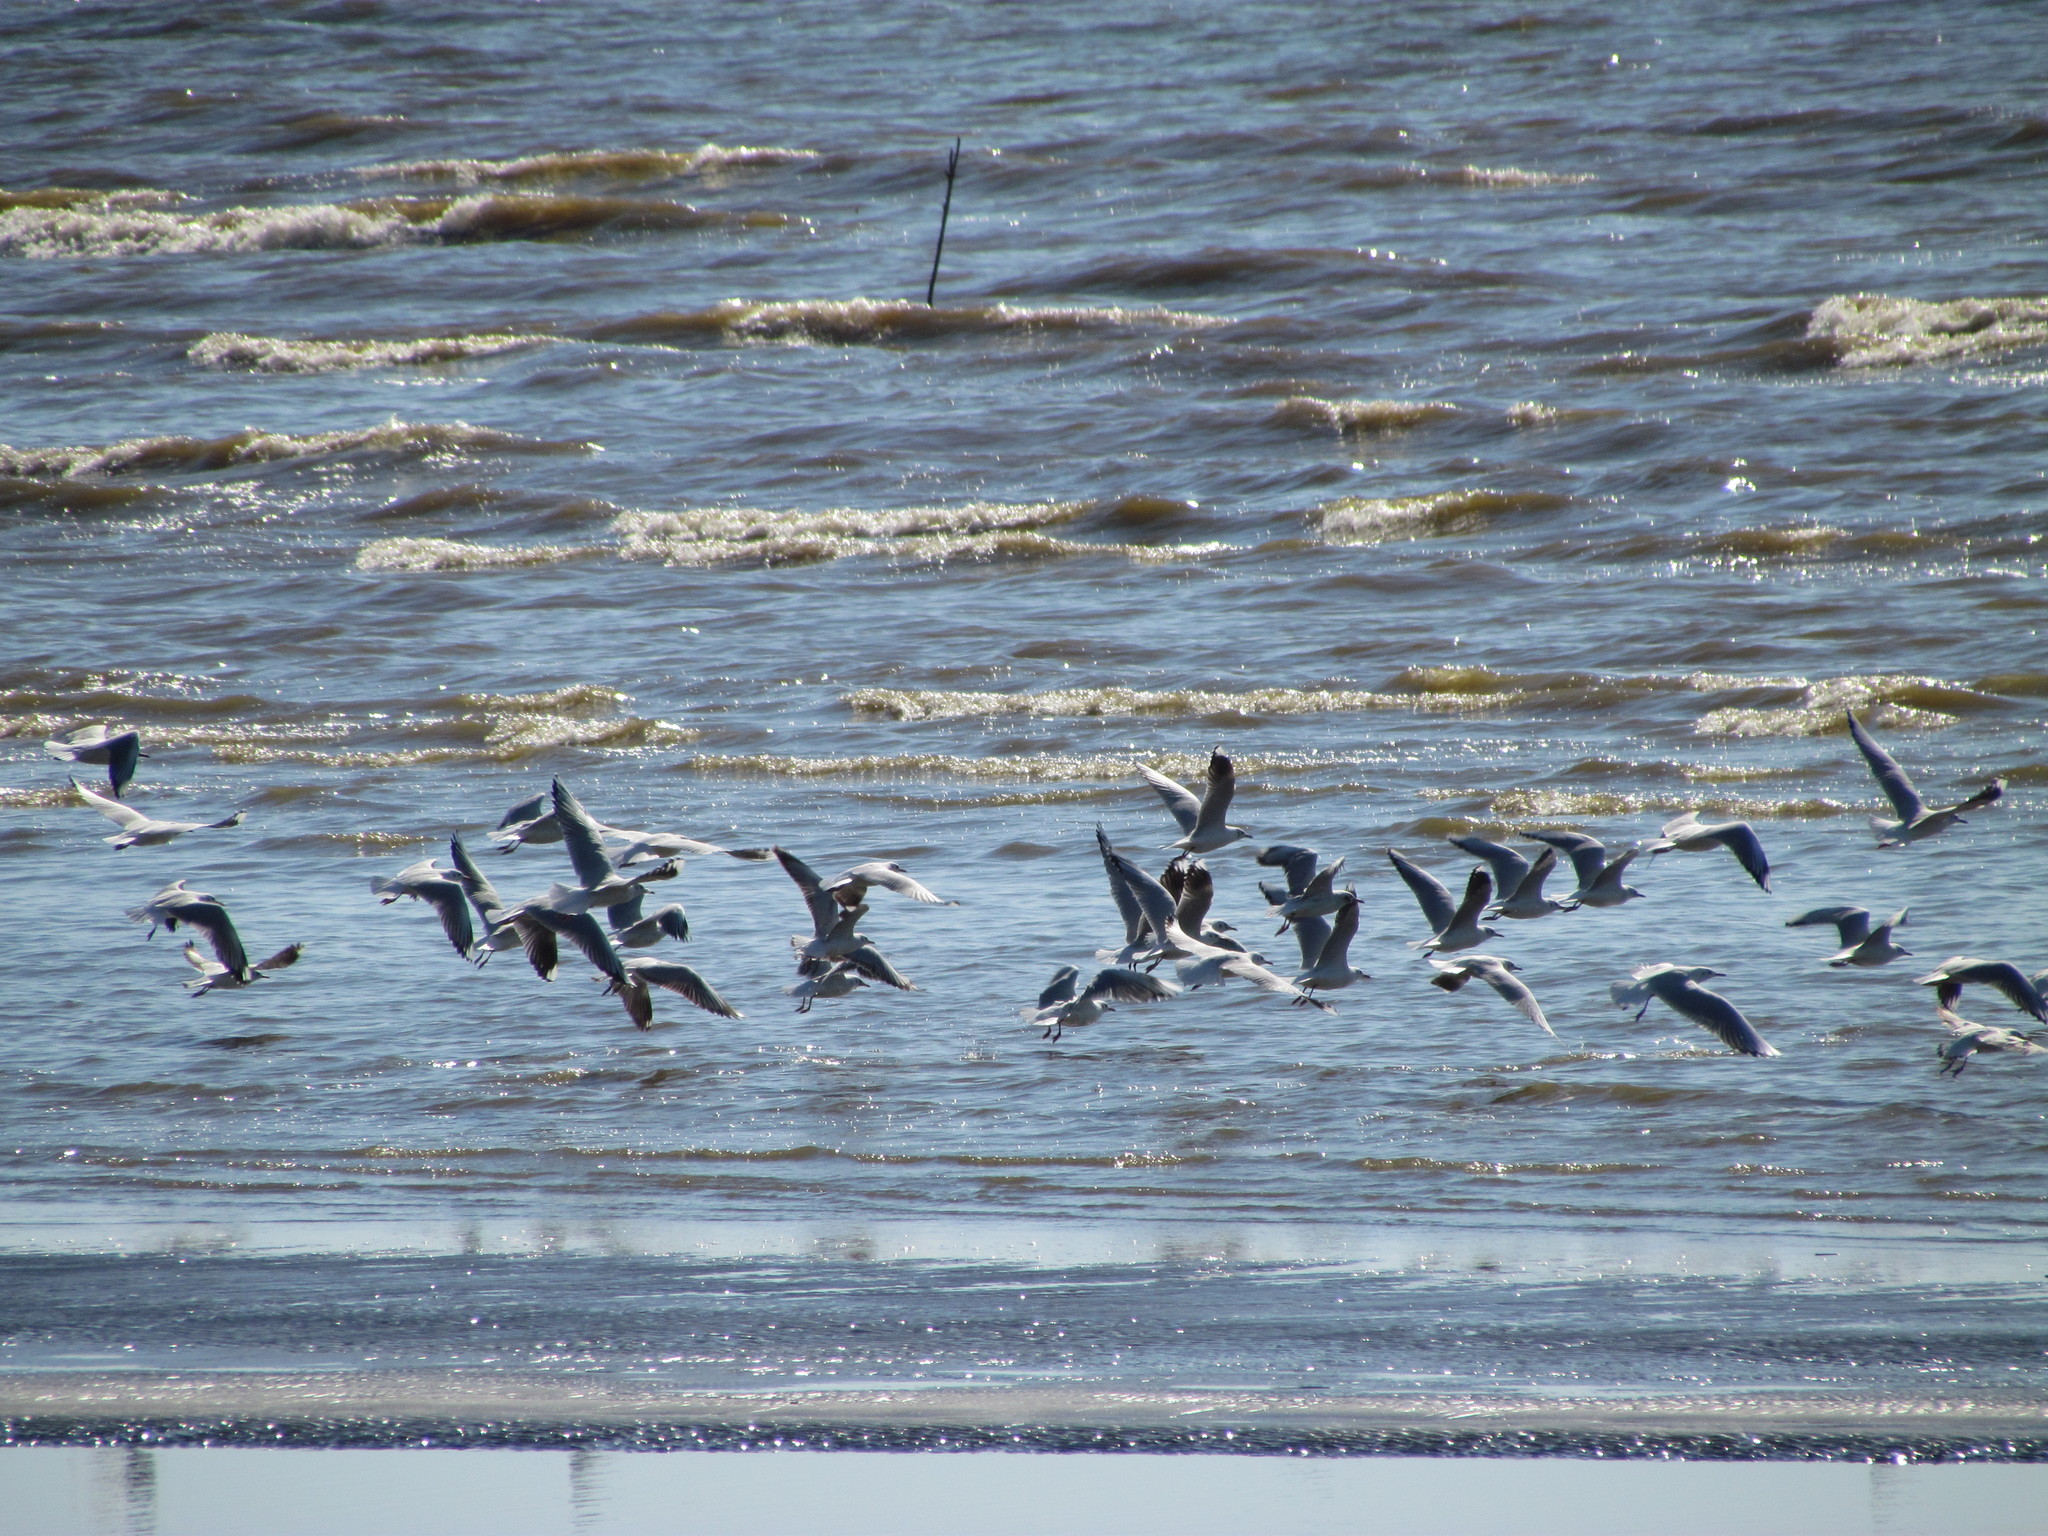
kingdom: Animalia
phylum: Chordata
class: Aves
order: Charadriiformes
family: Laridae
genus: Chroicocephalus
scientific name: Chroicocephalus maculipennis
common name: Brown-hooded gull
